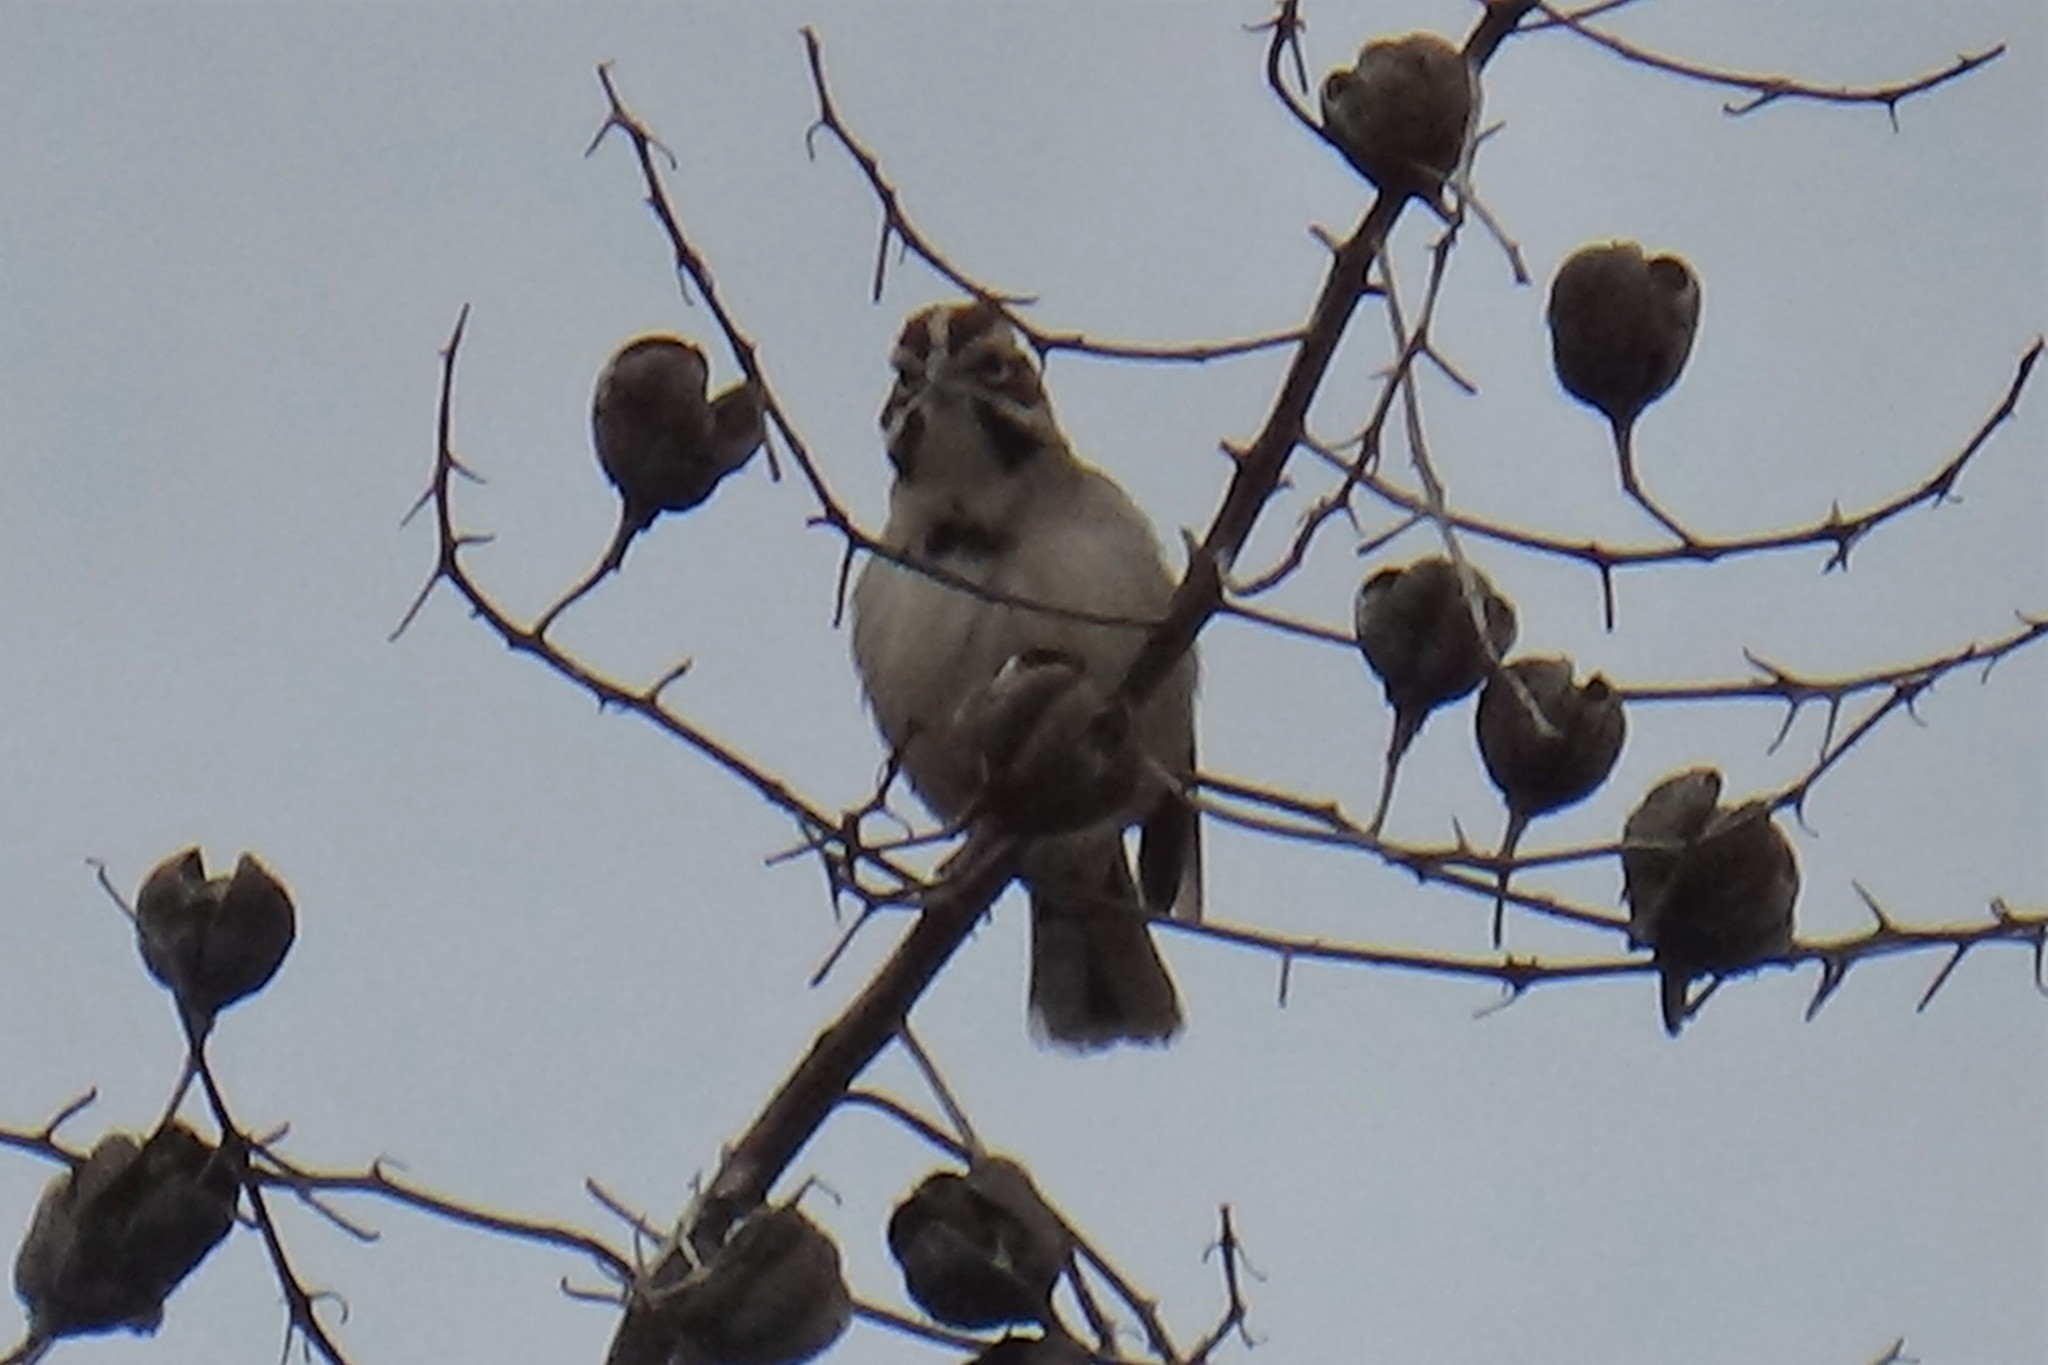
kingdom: Animalia
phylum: Chordata
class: Aves
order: Passeriformes
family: Passerellidae
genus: Chondestes
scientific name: Chondestes grammacus
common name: Lark sparrow
